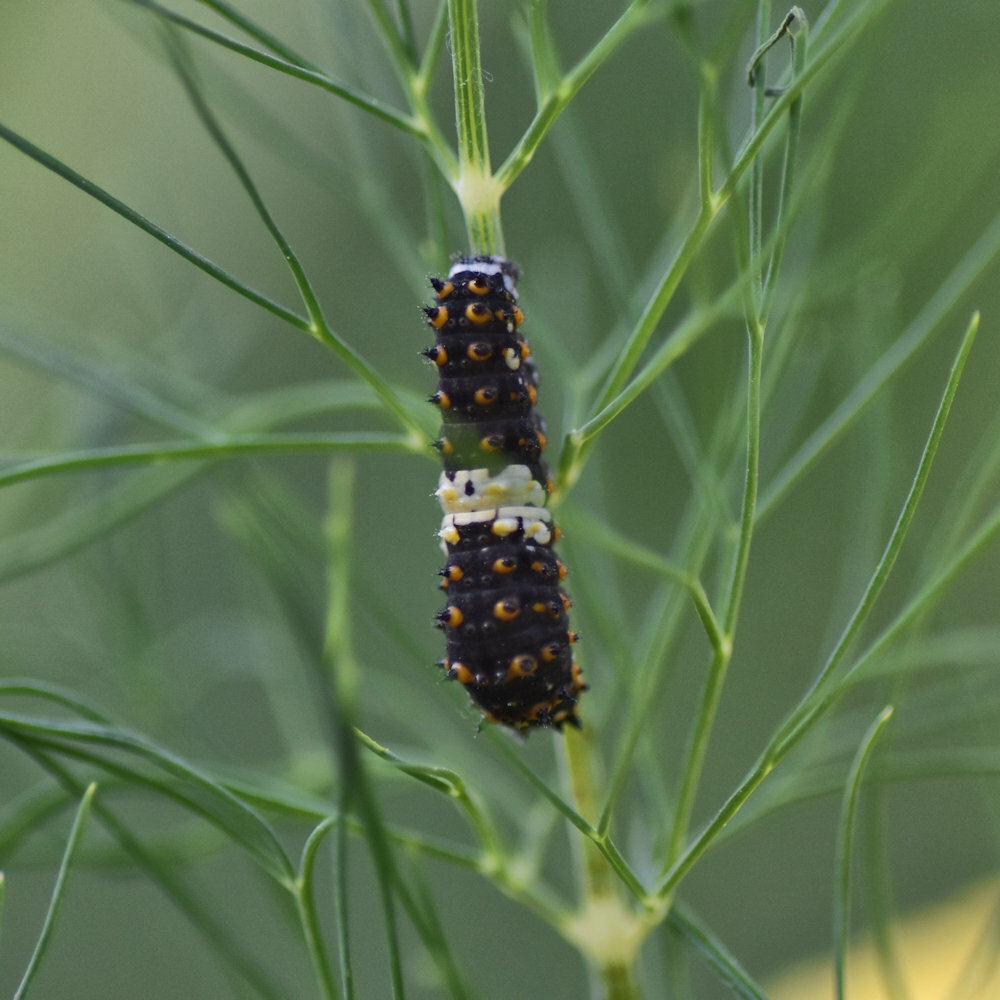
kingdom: Animalia
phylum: Arthropoda
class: Insecta
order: Lepidoptera
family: Papilionidae
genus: Papilio
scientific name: Papilio polyxenes
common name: Black swallowtail
